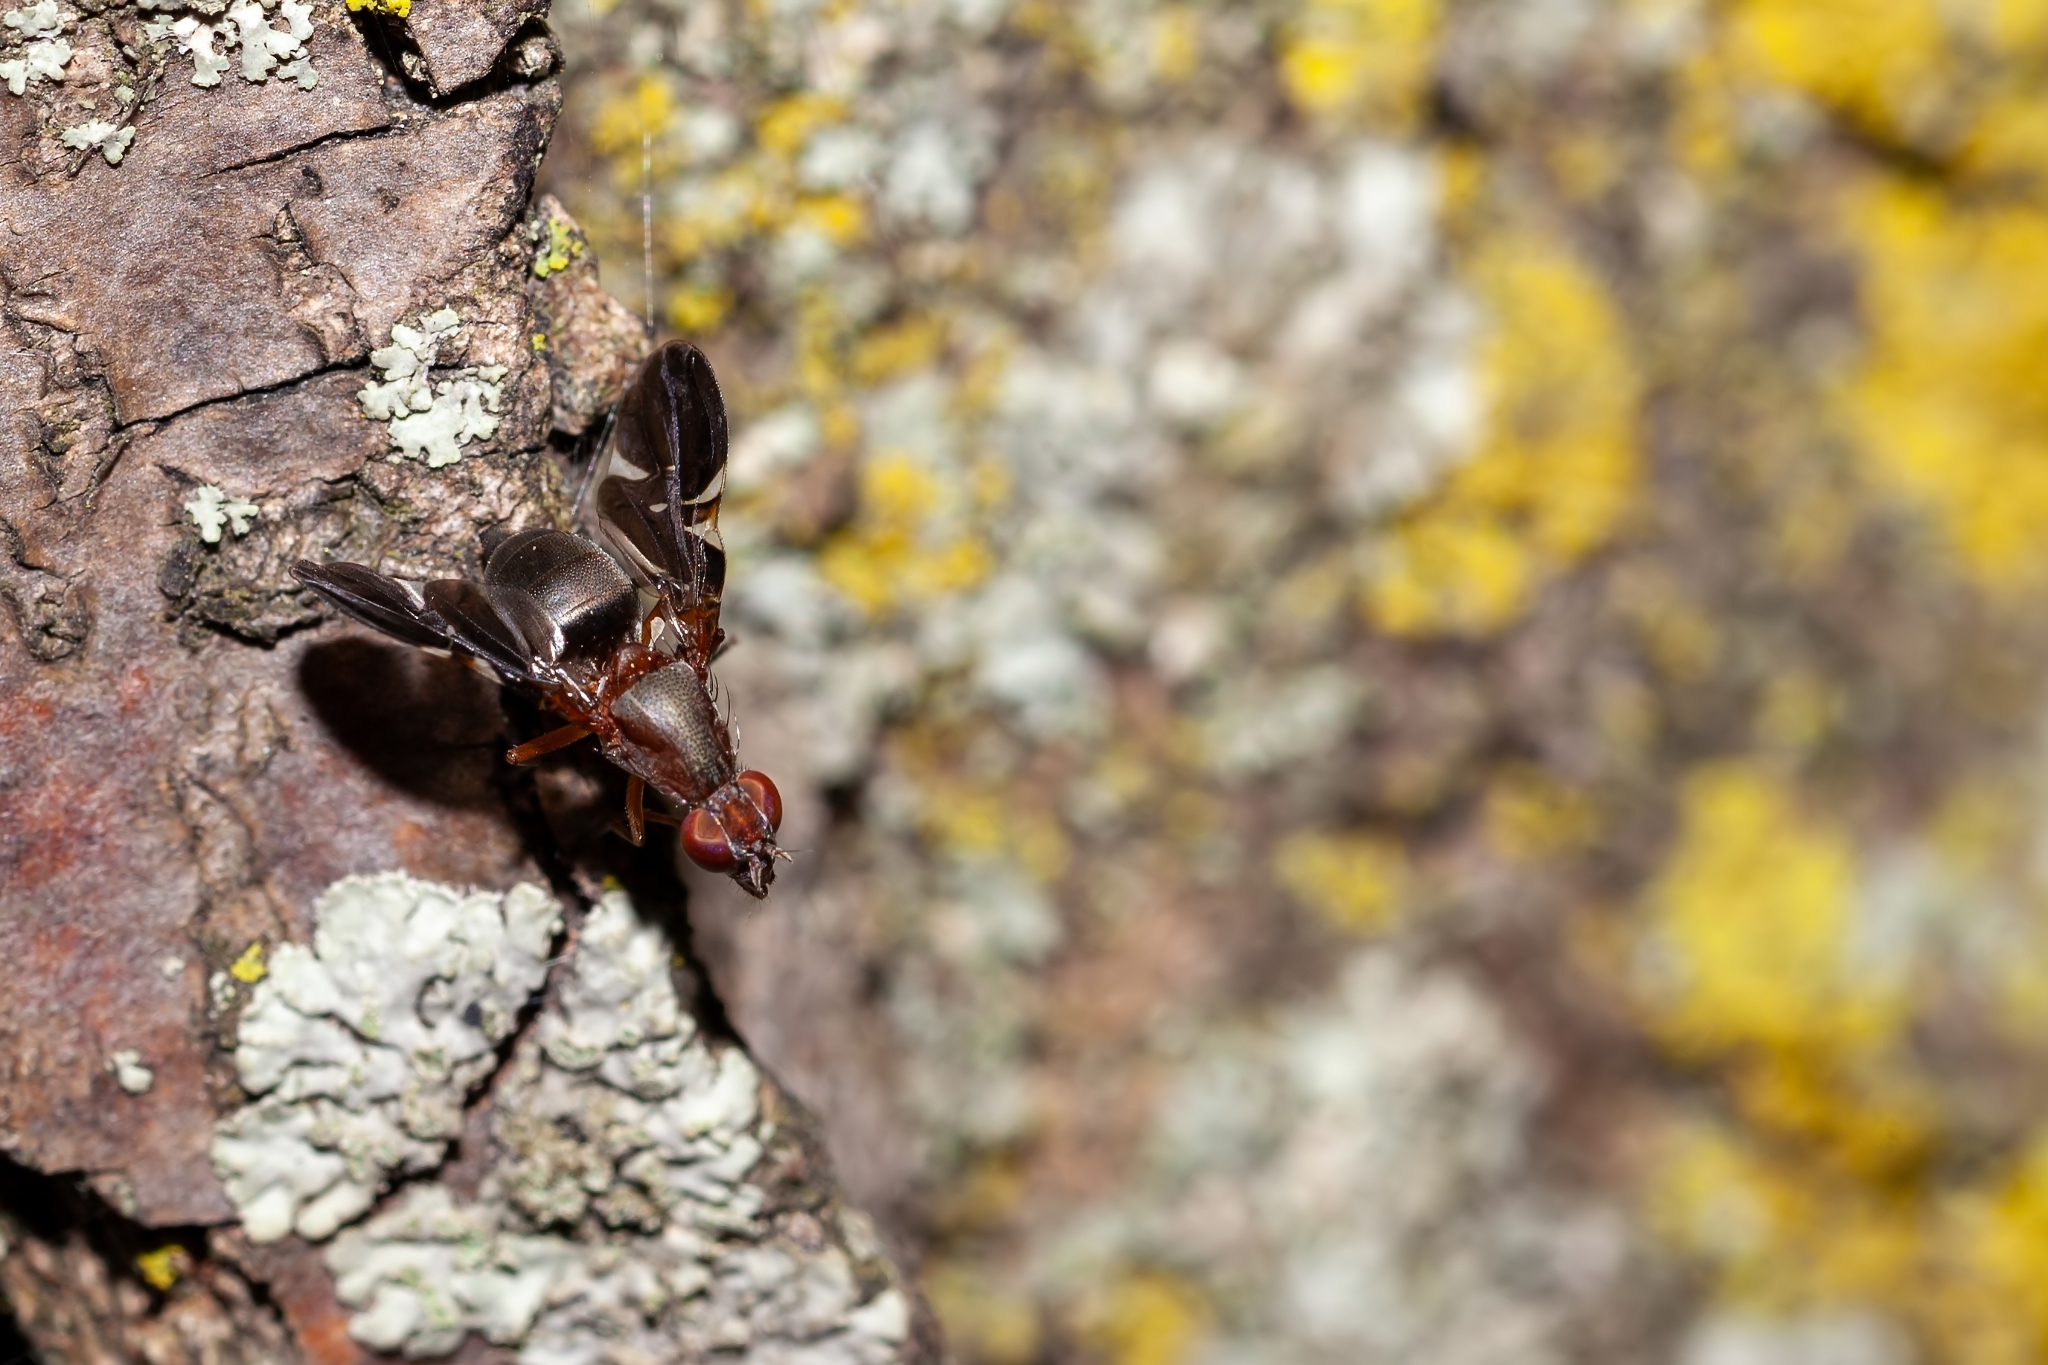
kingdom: Animalia
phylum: Arthropoda
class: Insecta
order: Diptera
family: Ulidiidae
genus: Delphinia
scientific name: Delphinia picta
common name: Common picture-winged fly
